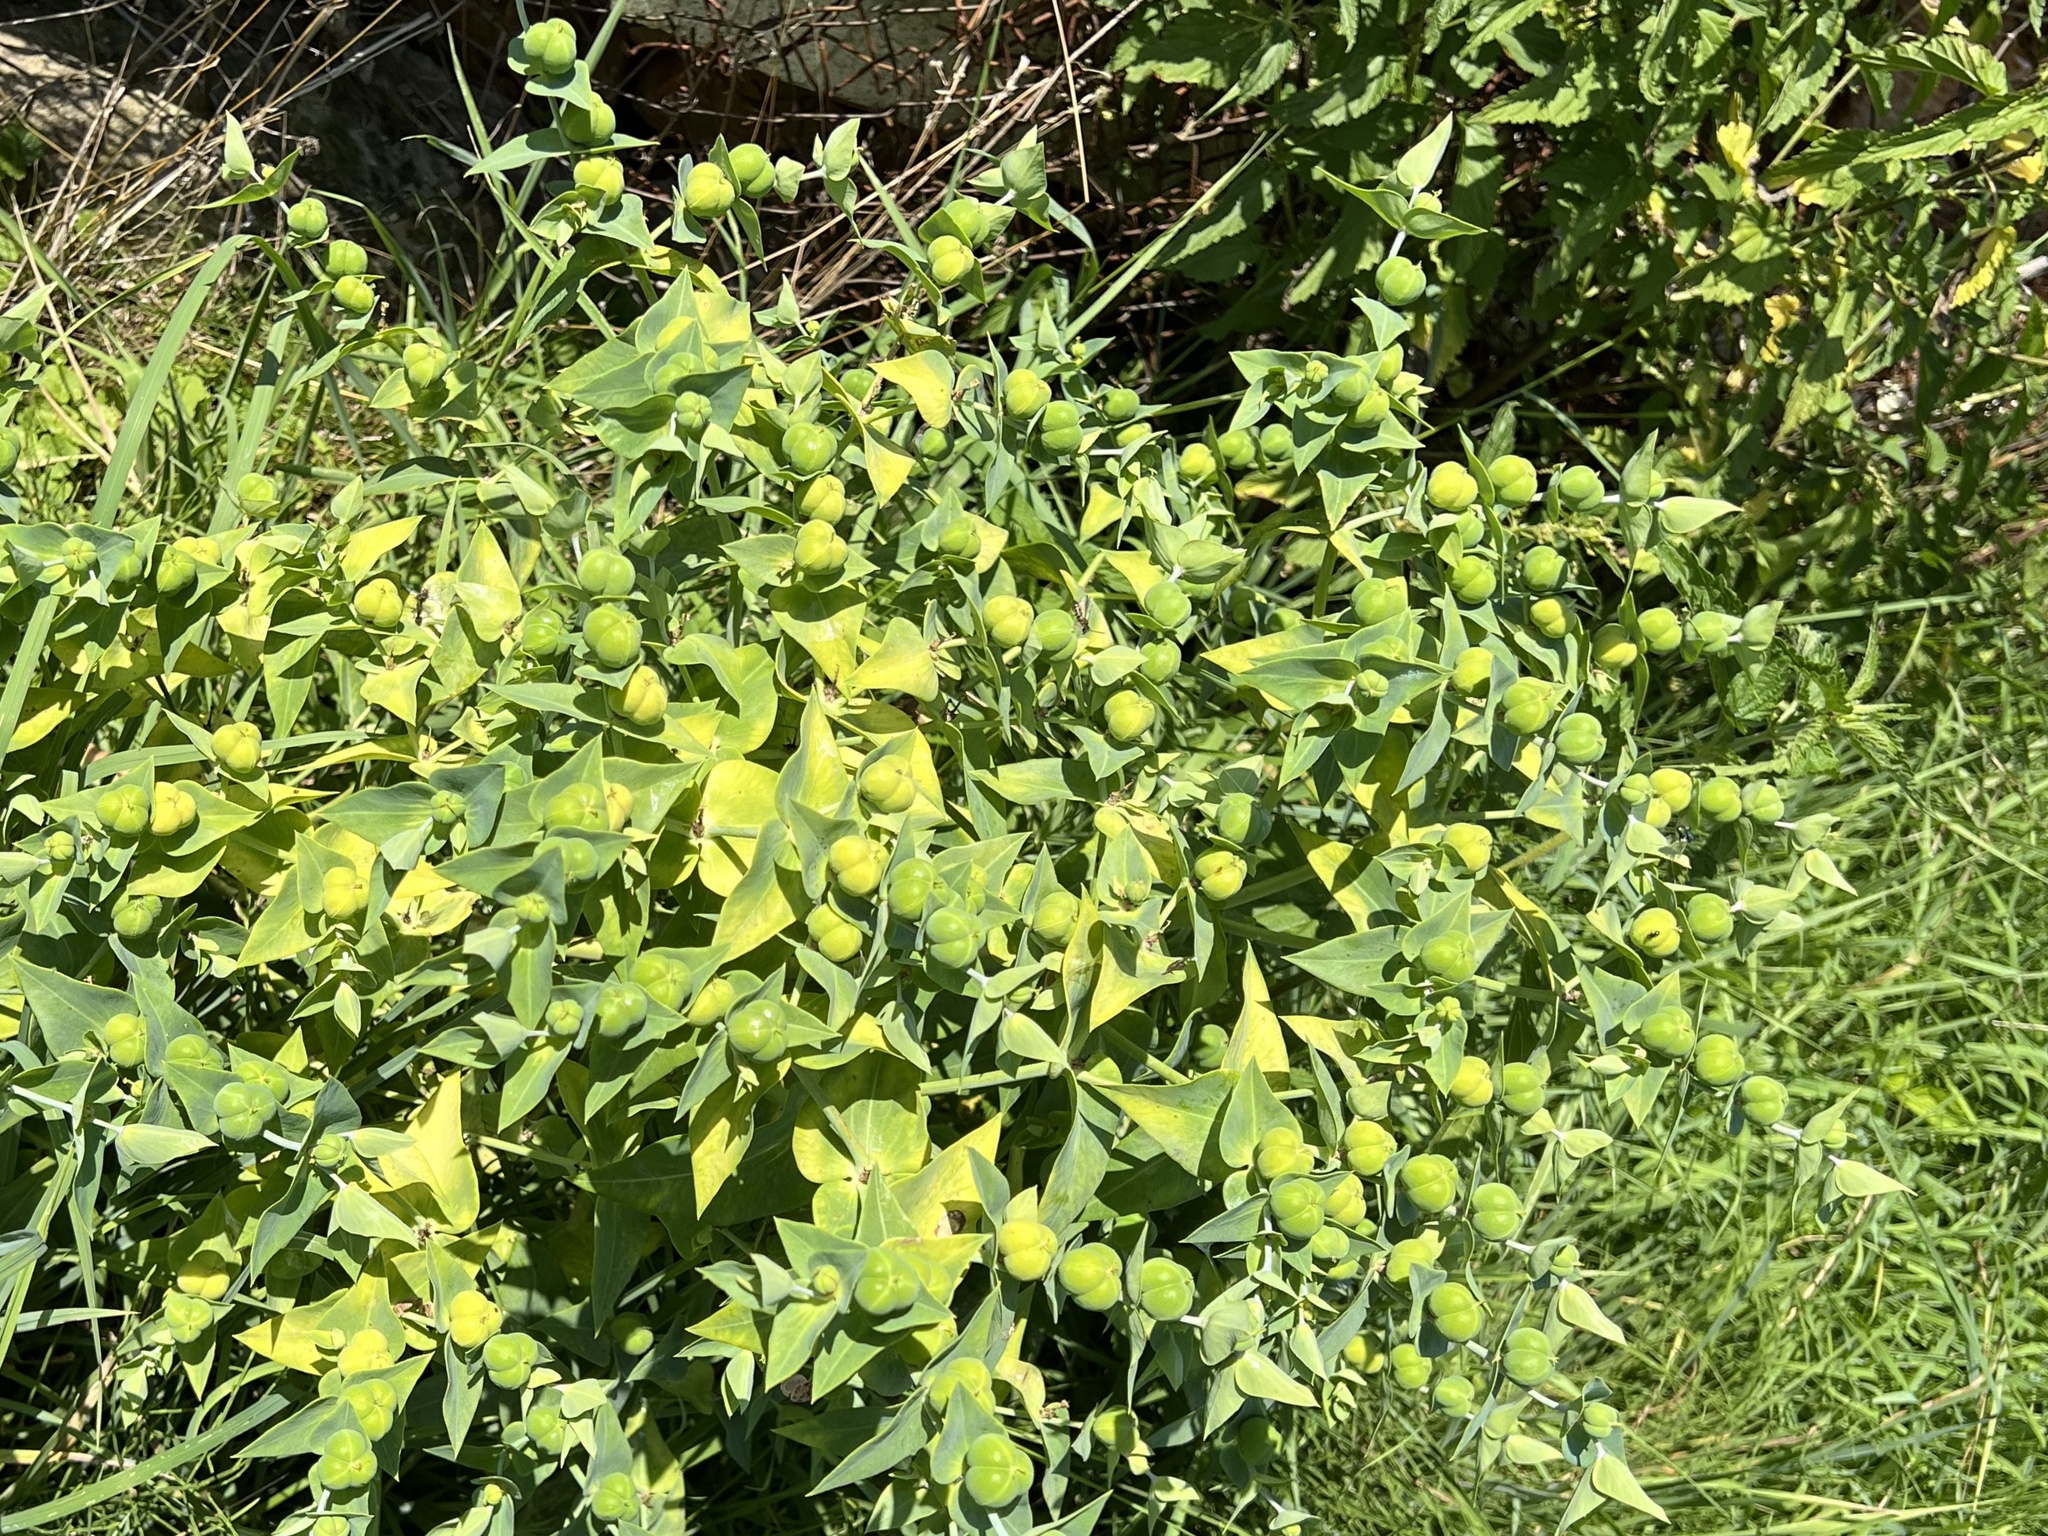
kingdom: Plantae
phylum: Tracheophyta
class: Magnoliopsida
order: Malpighiales
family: Euphorbiaceae
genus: Euphorbia
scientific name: Euphorbia lathyris
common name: Caper spurge
